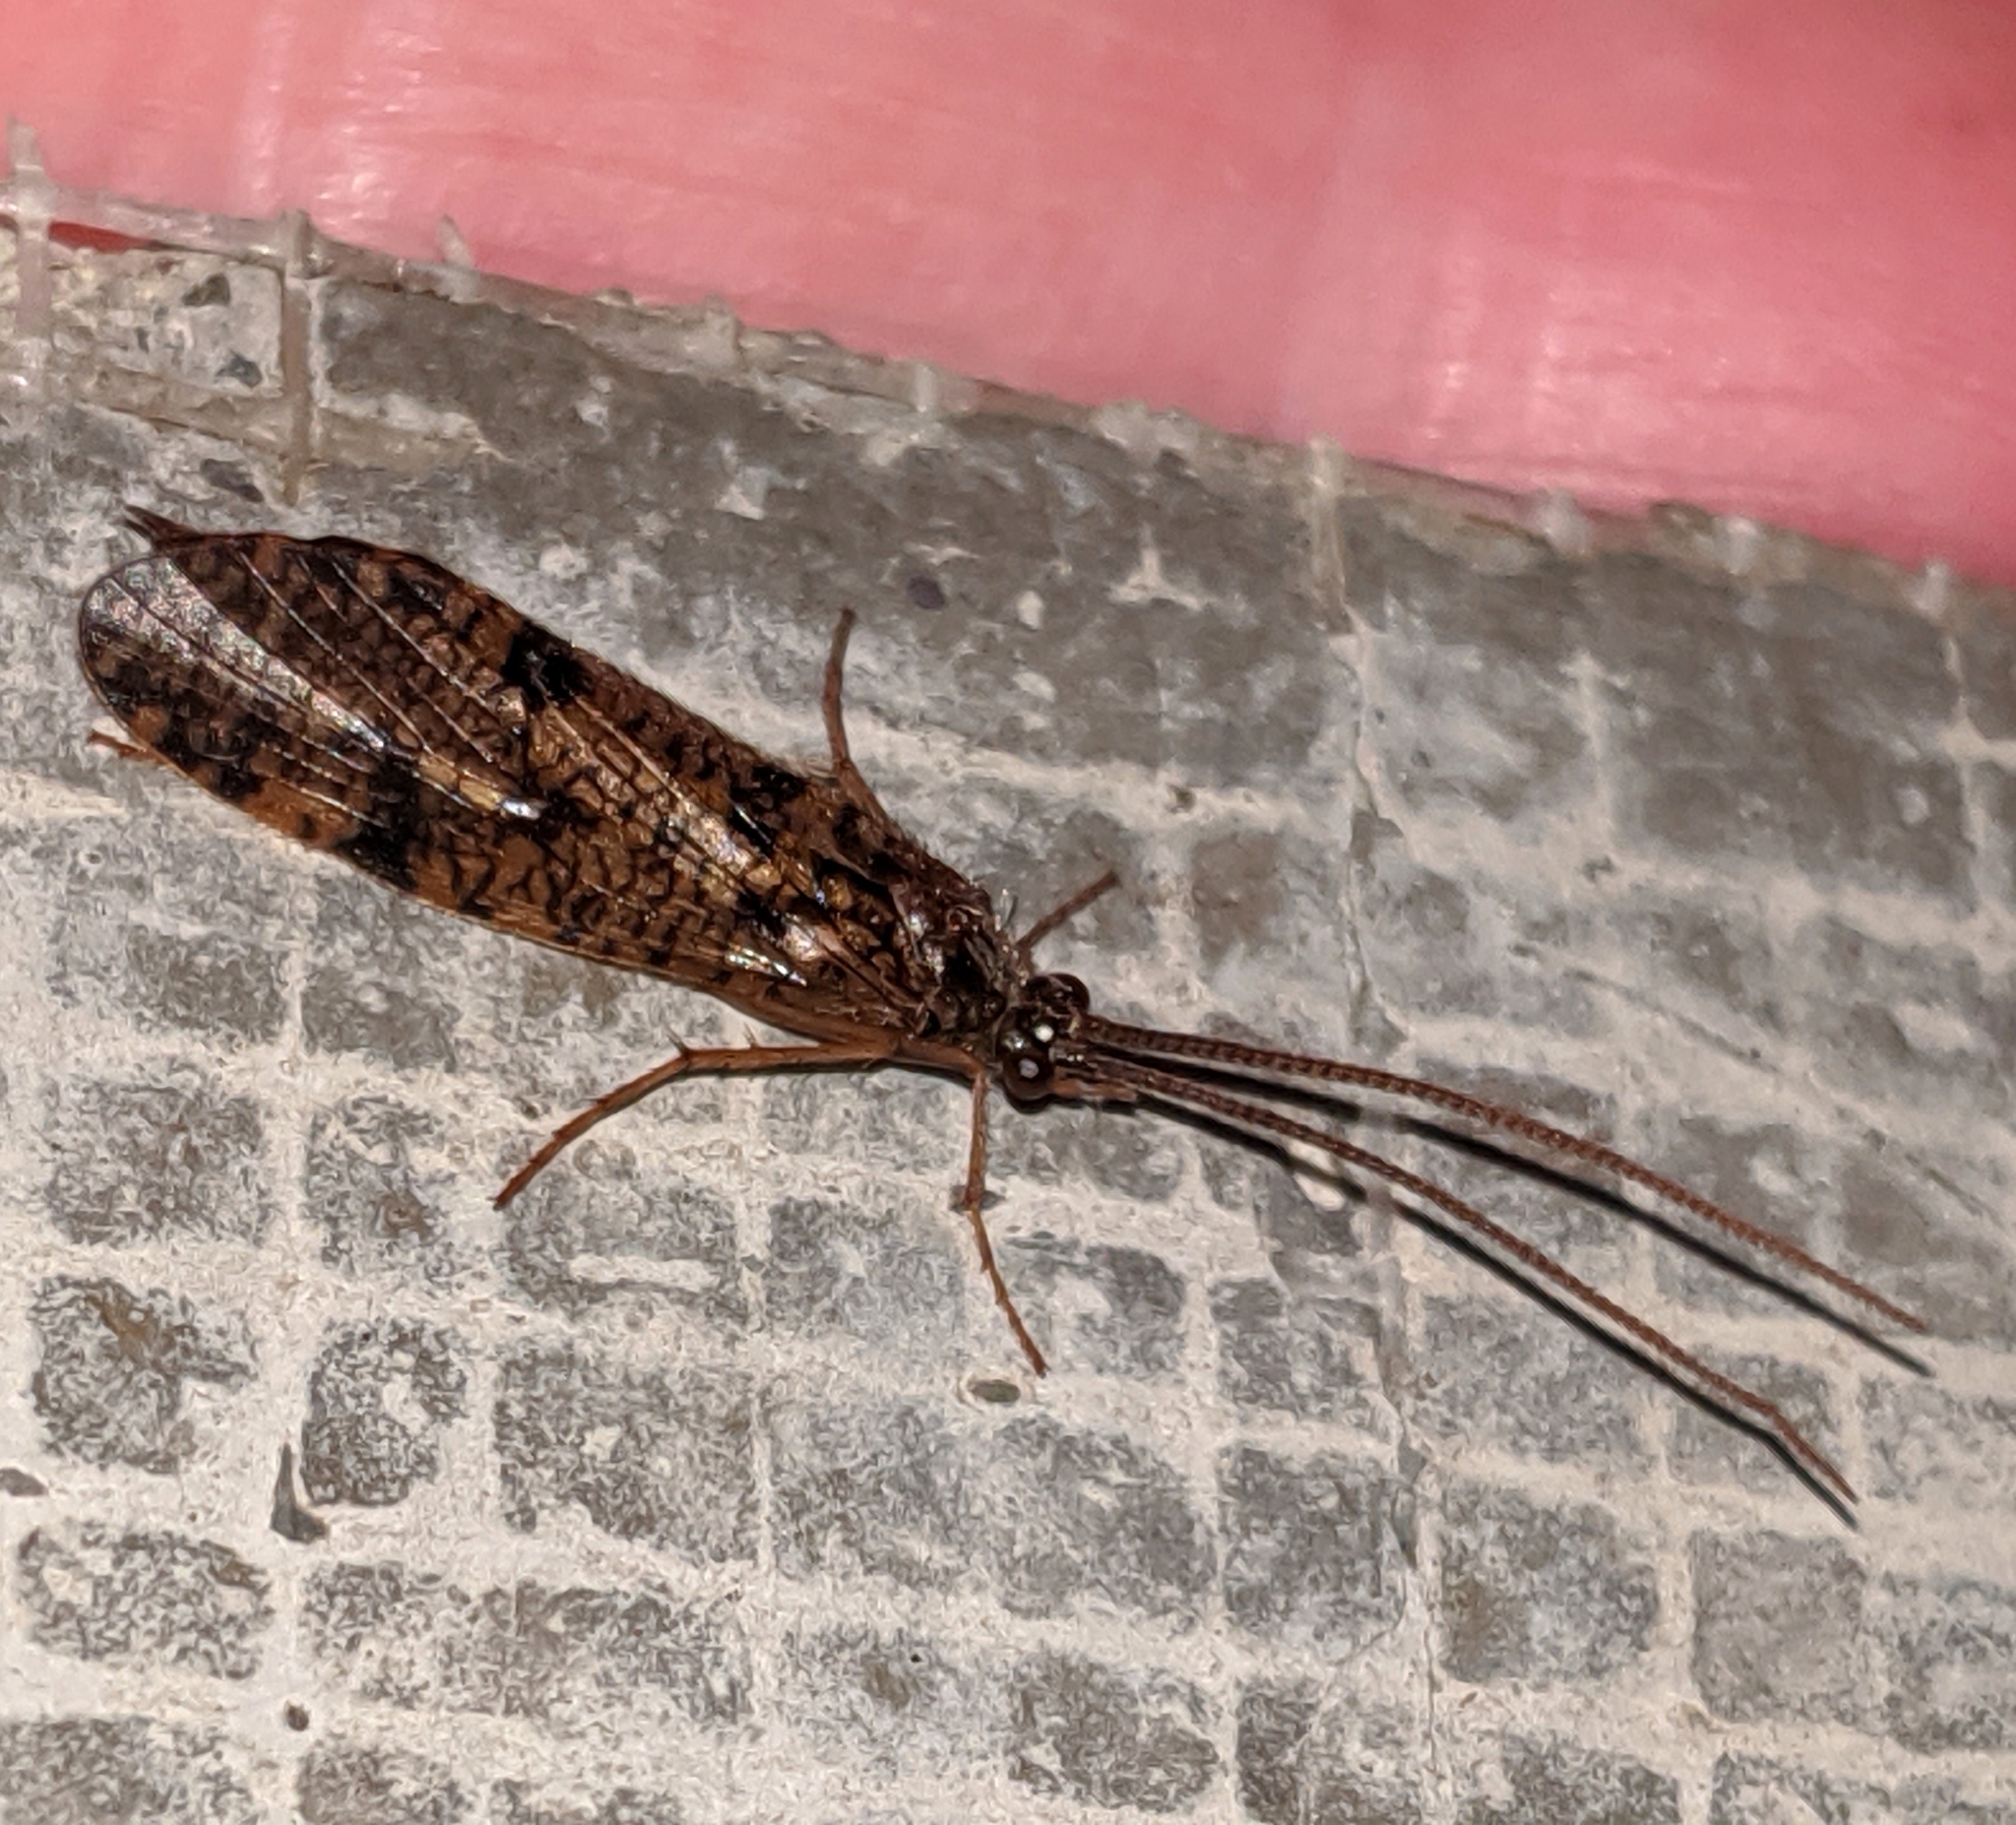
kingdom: Animalia
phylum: Arthropoda
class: Insecta
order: Trichoptera
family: Phryganeidae
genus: Banksiola
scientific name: Banksiola crotchi
